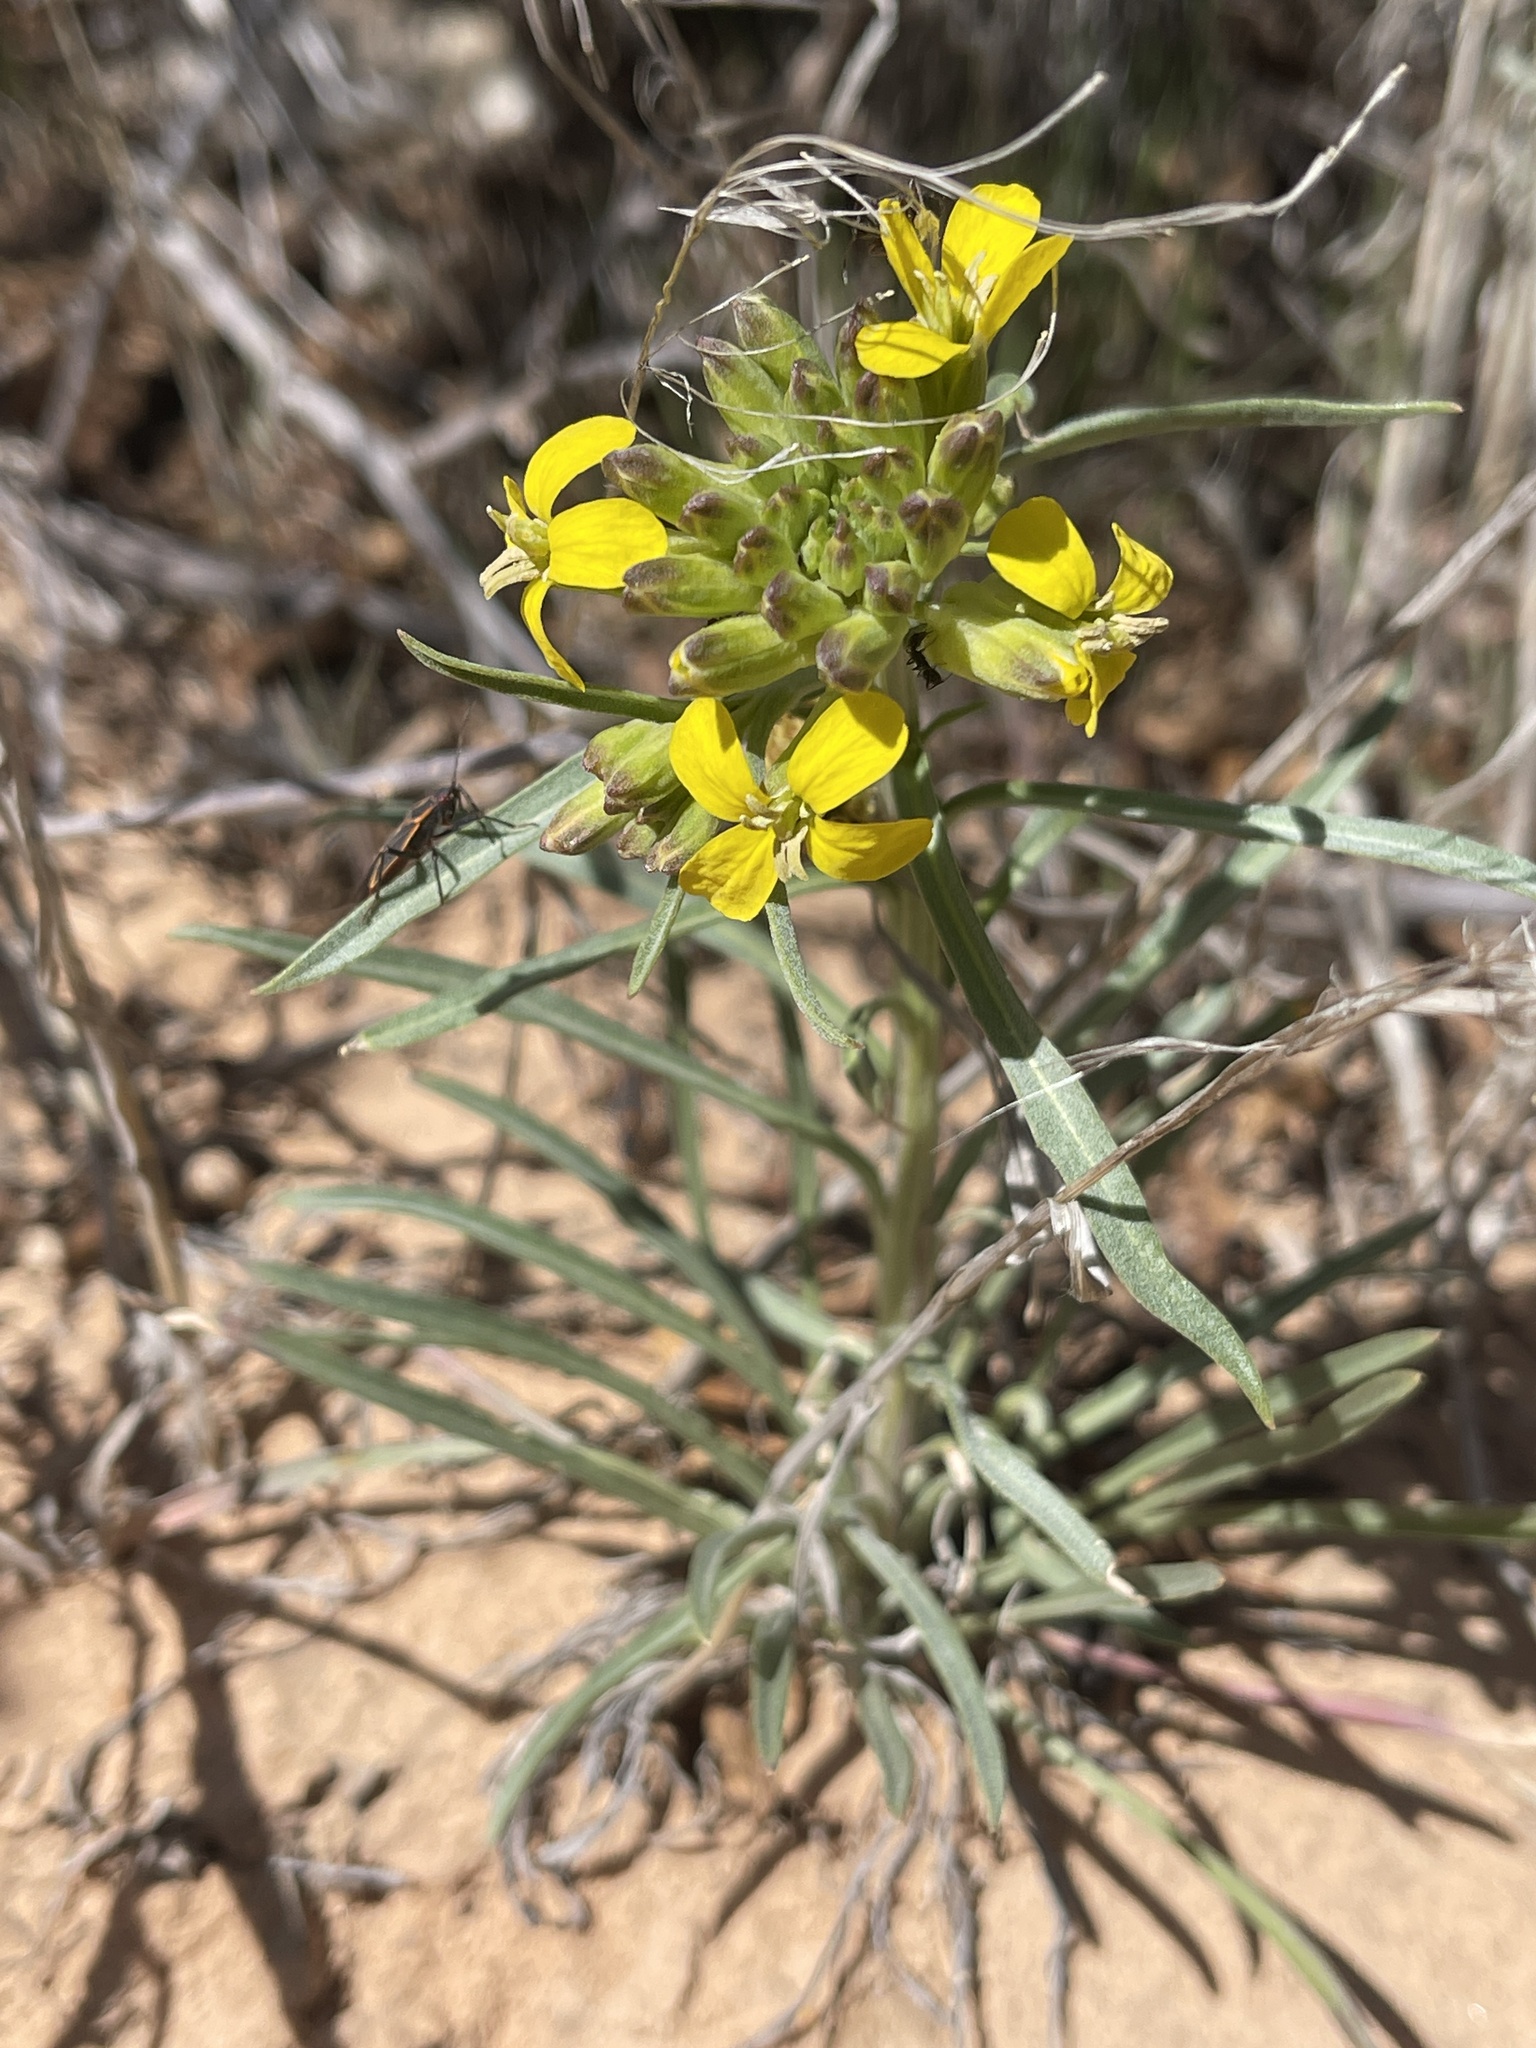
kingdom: Plantae
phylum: Tracheophyta
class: Magnoliopsida
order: Brassicales
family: Brassicaceae
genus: Erysimum
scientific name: Erysimum capitatum
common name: Western wallflower
